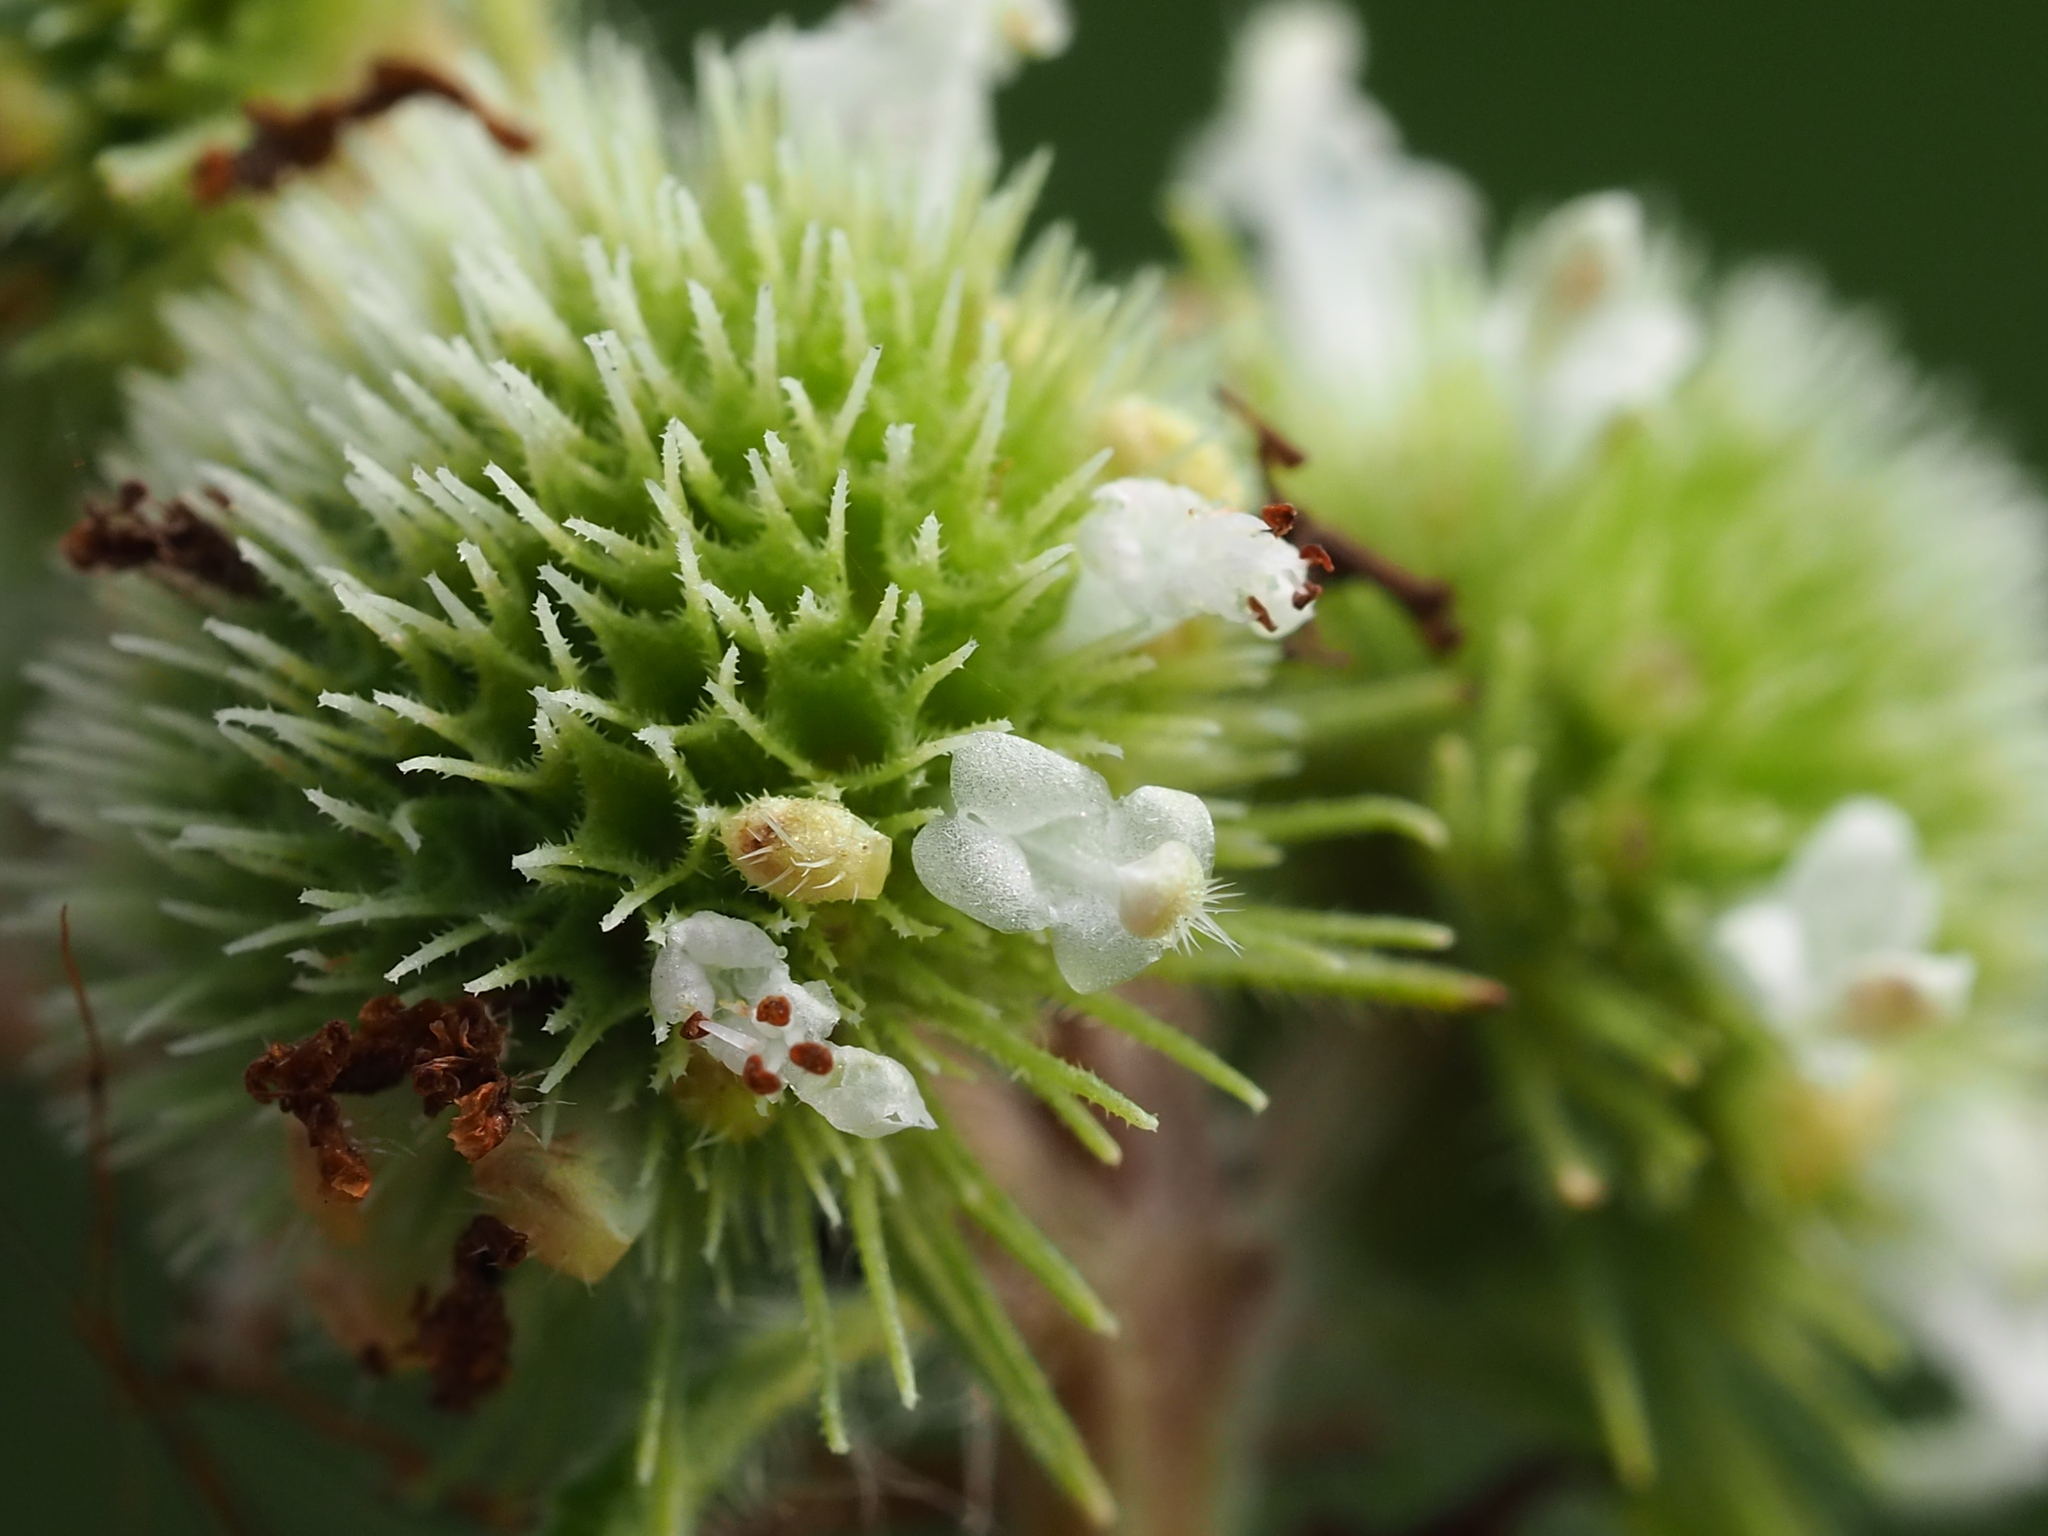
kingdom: Plantae
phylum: Tracheophyta
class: Magnoliopsida
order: Lamiales
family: Lamiaceae
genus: Hyptis
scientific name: Hyptis brevipes
